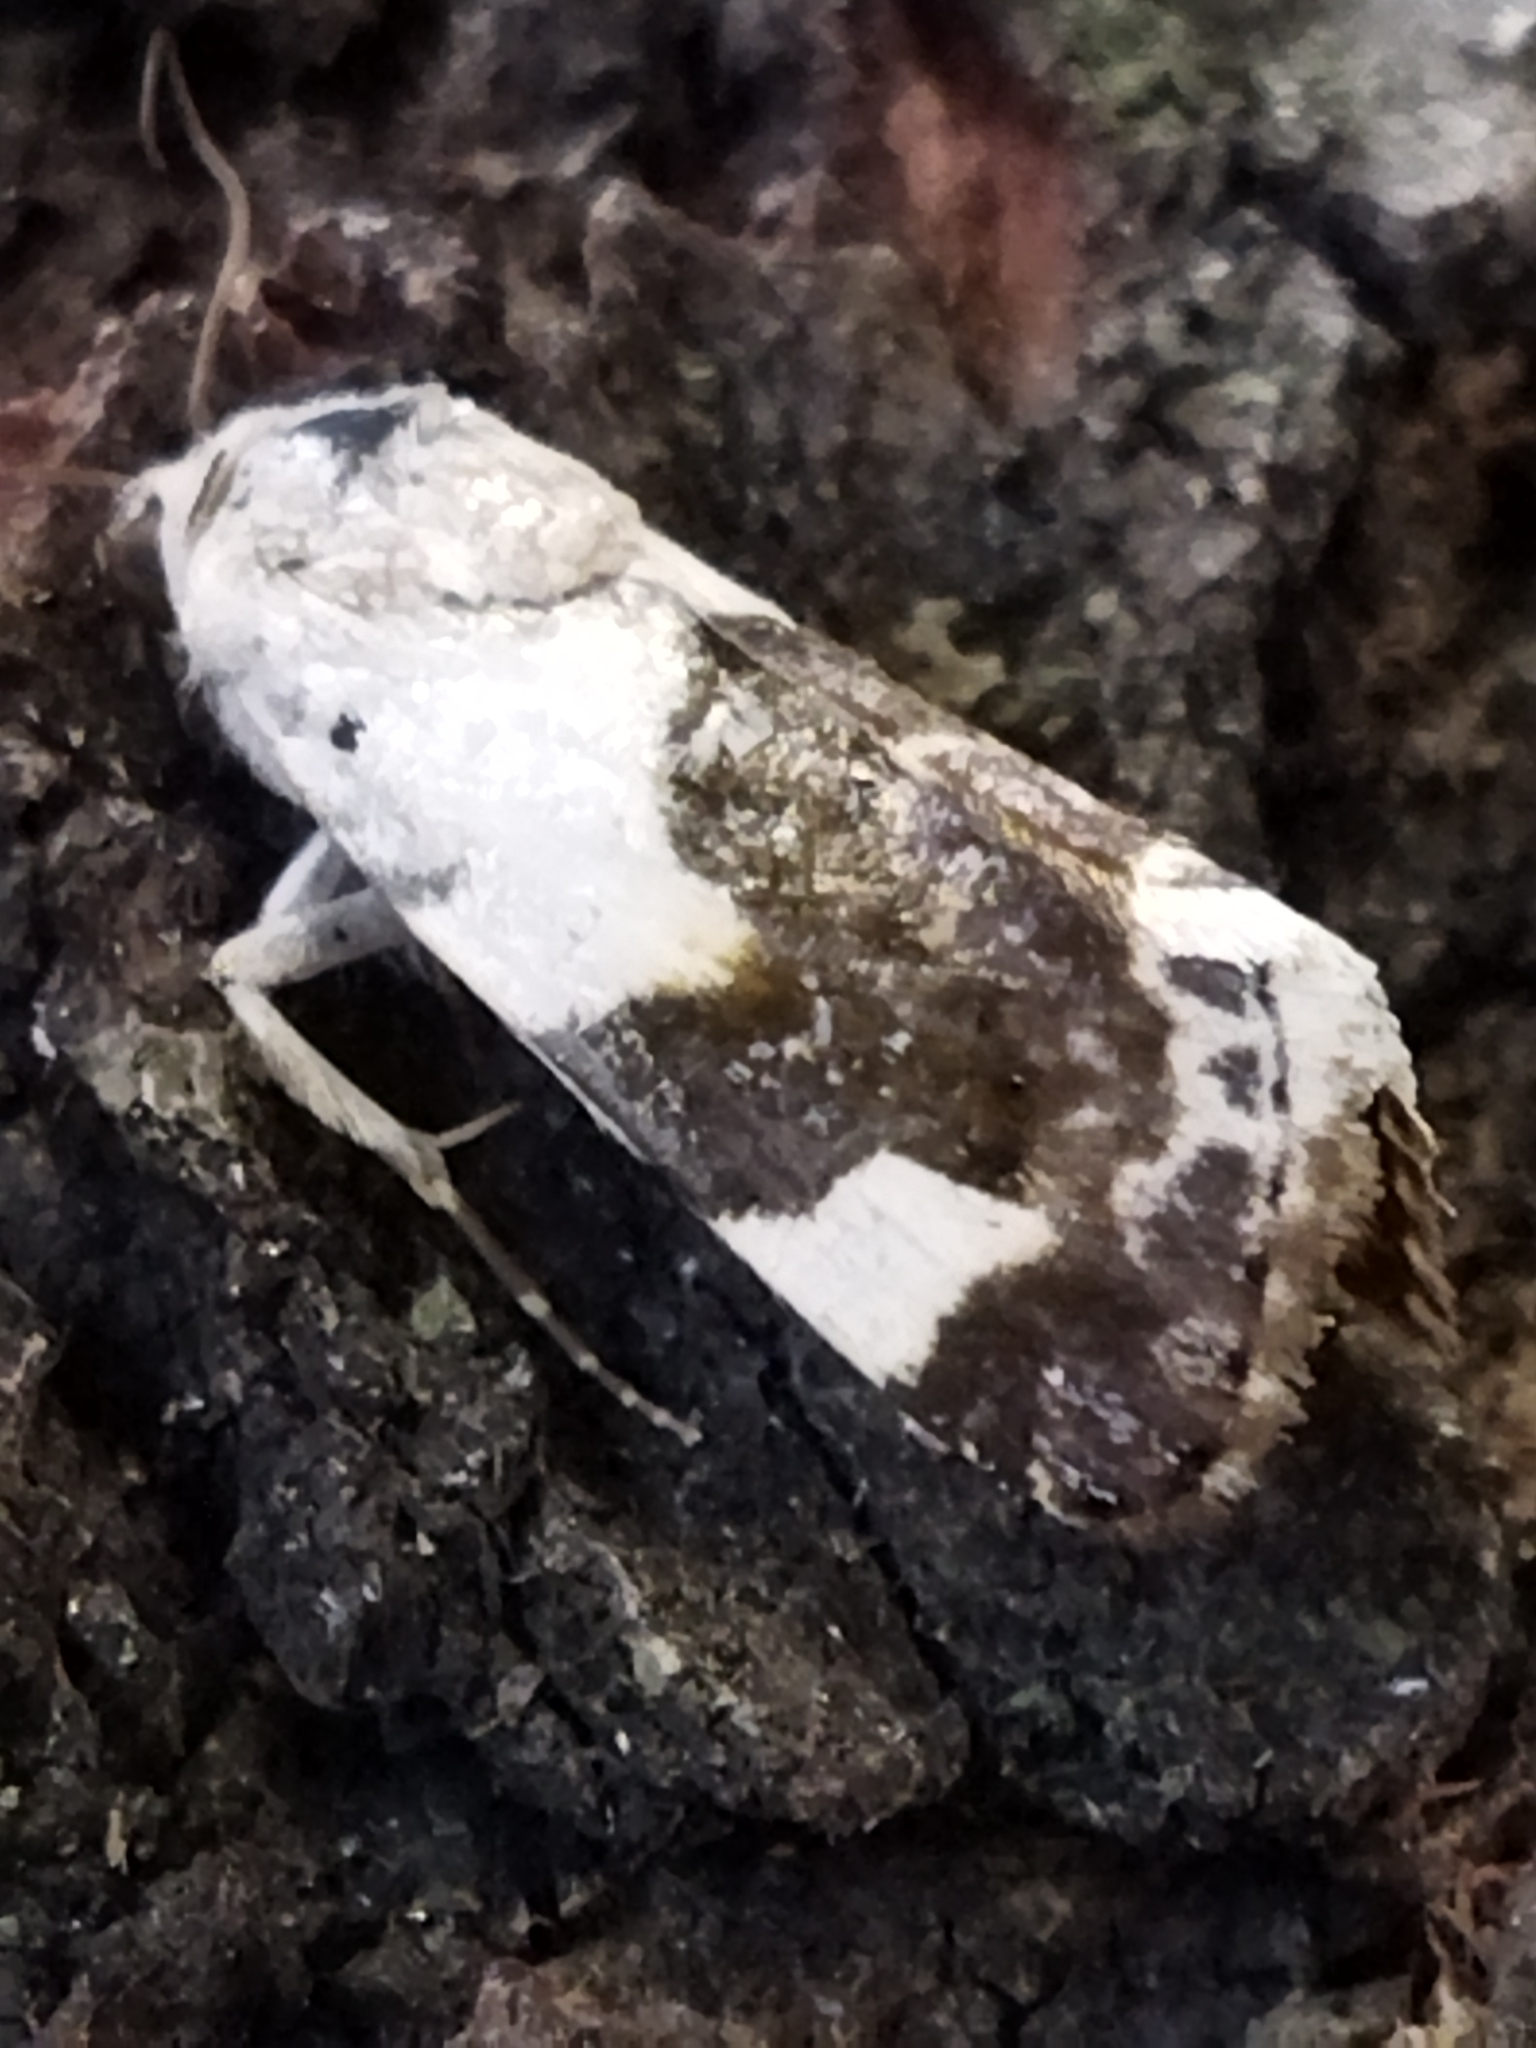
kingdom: Animalia
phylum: Arthropoda
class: Insecta
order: Lepidoptera
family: Noctuidae
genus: Acontia
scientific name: Acontia lucida
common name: Pale shoulder
